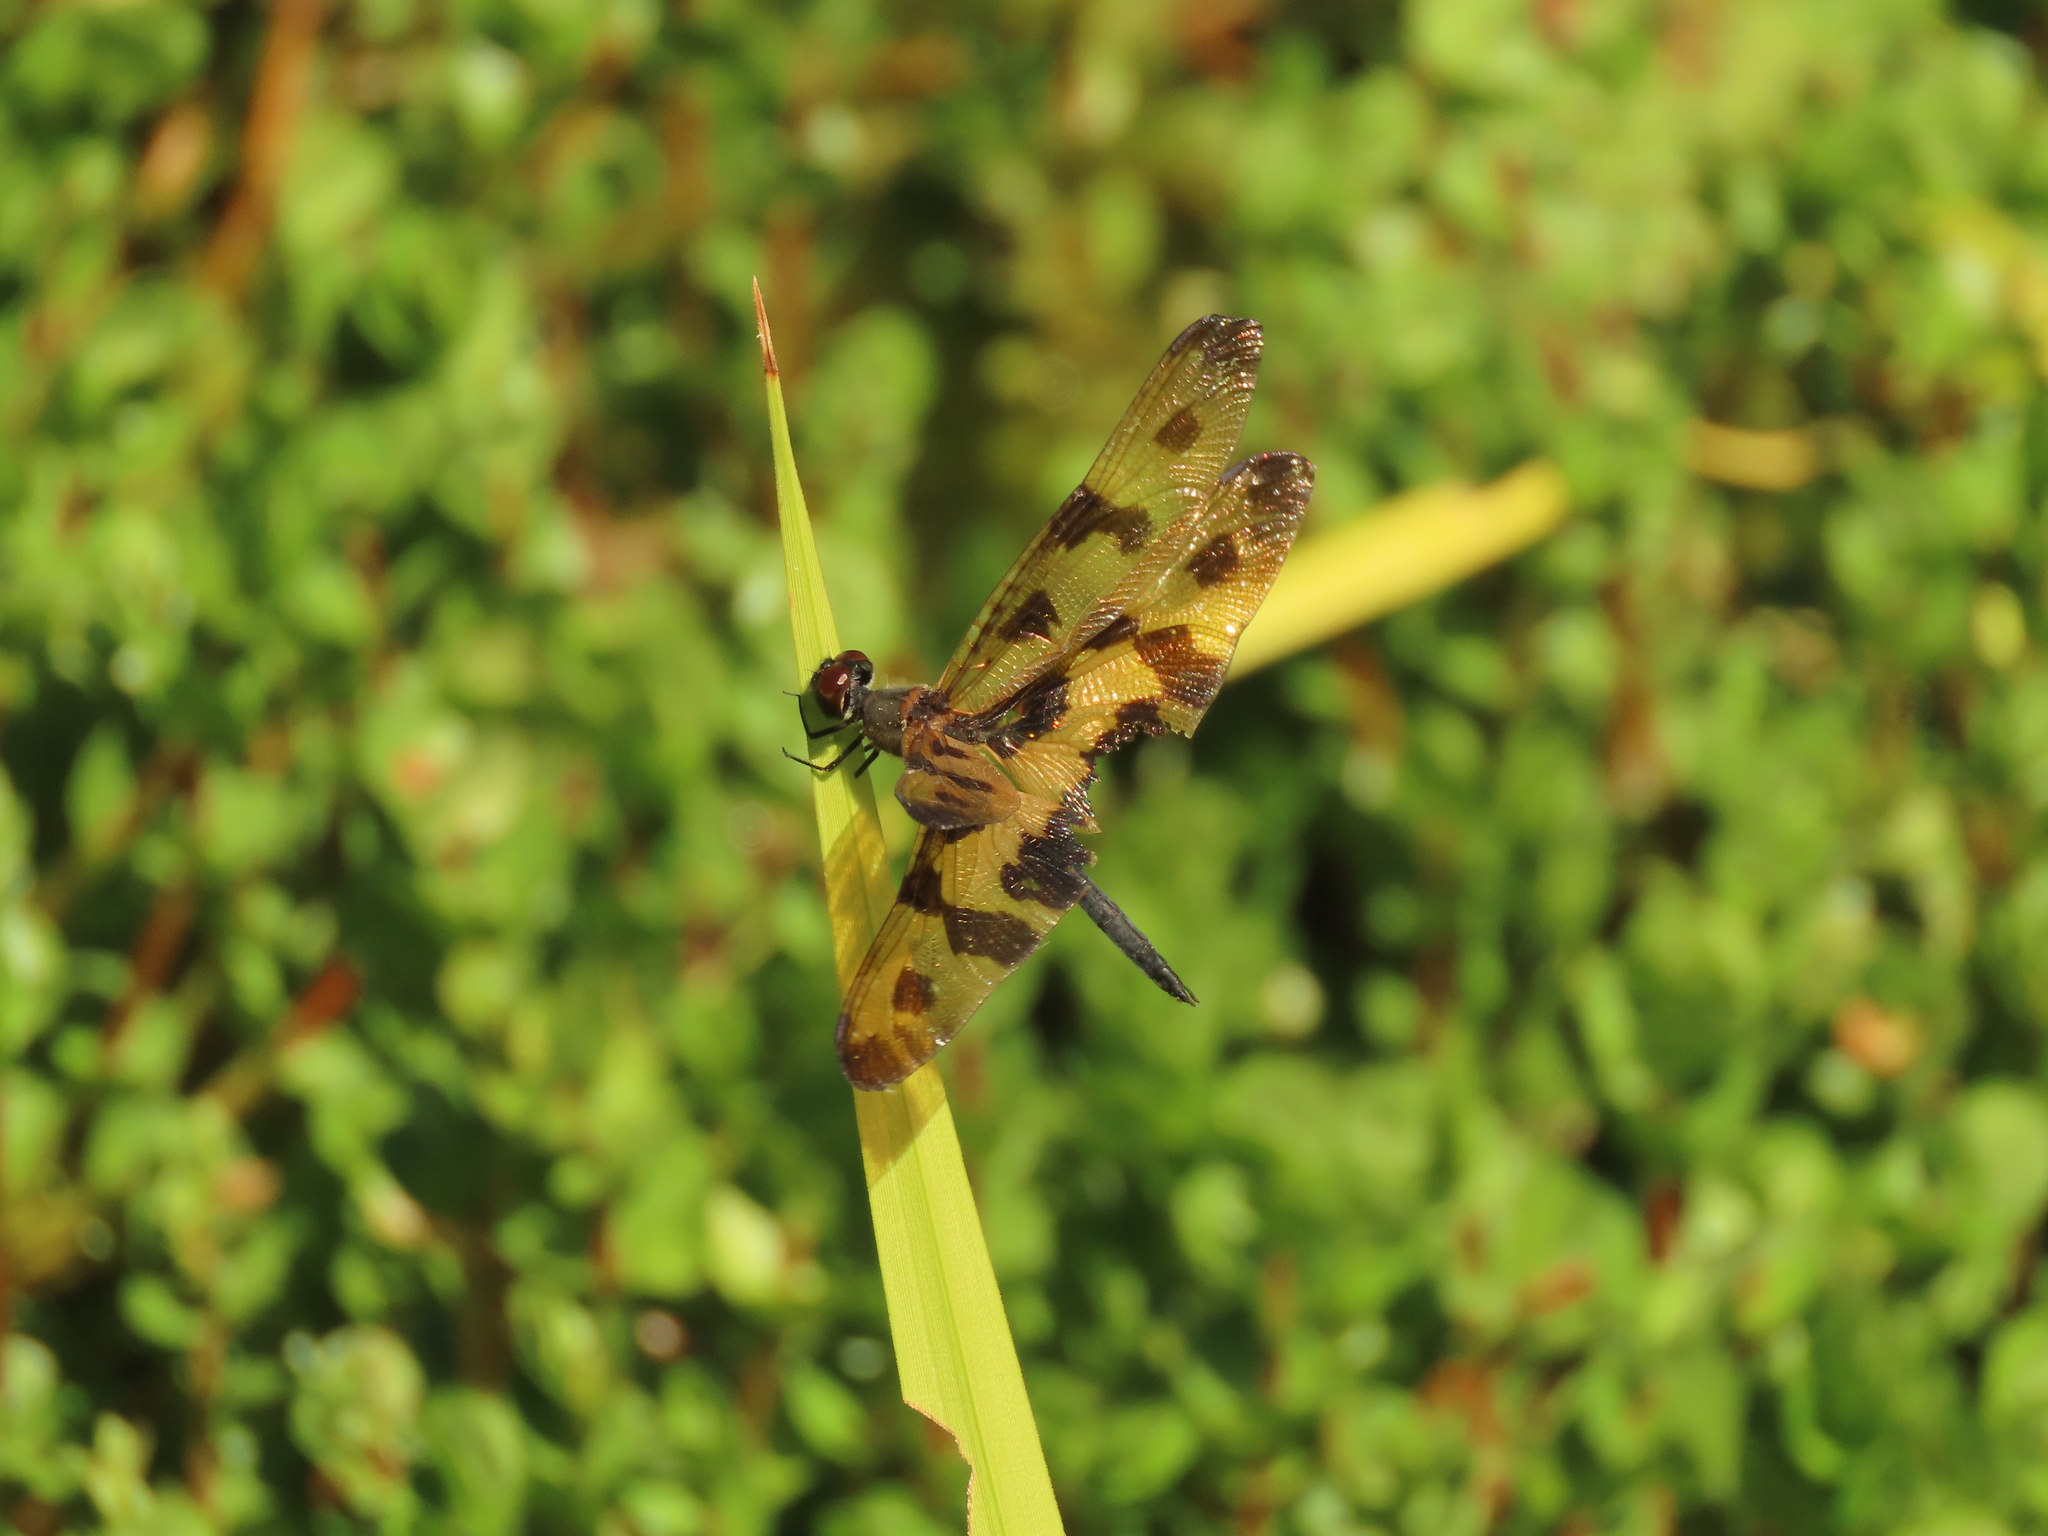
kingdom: Animalia
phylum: Arthropoda
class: Insecta
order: Odonata
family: Libellulidae
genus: Rhyothemis
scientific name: Rhyothemis variegata
